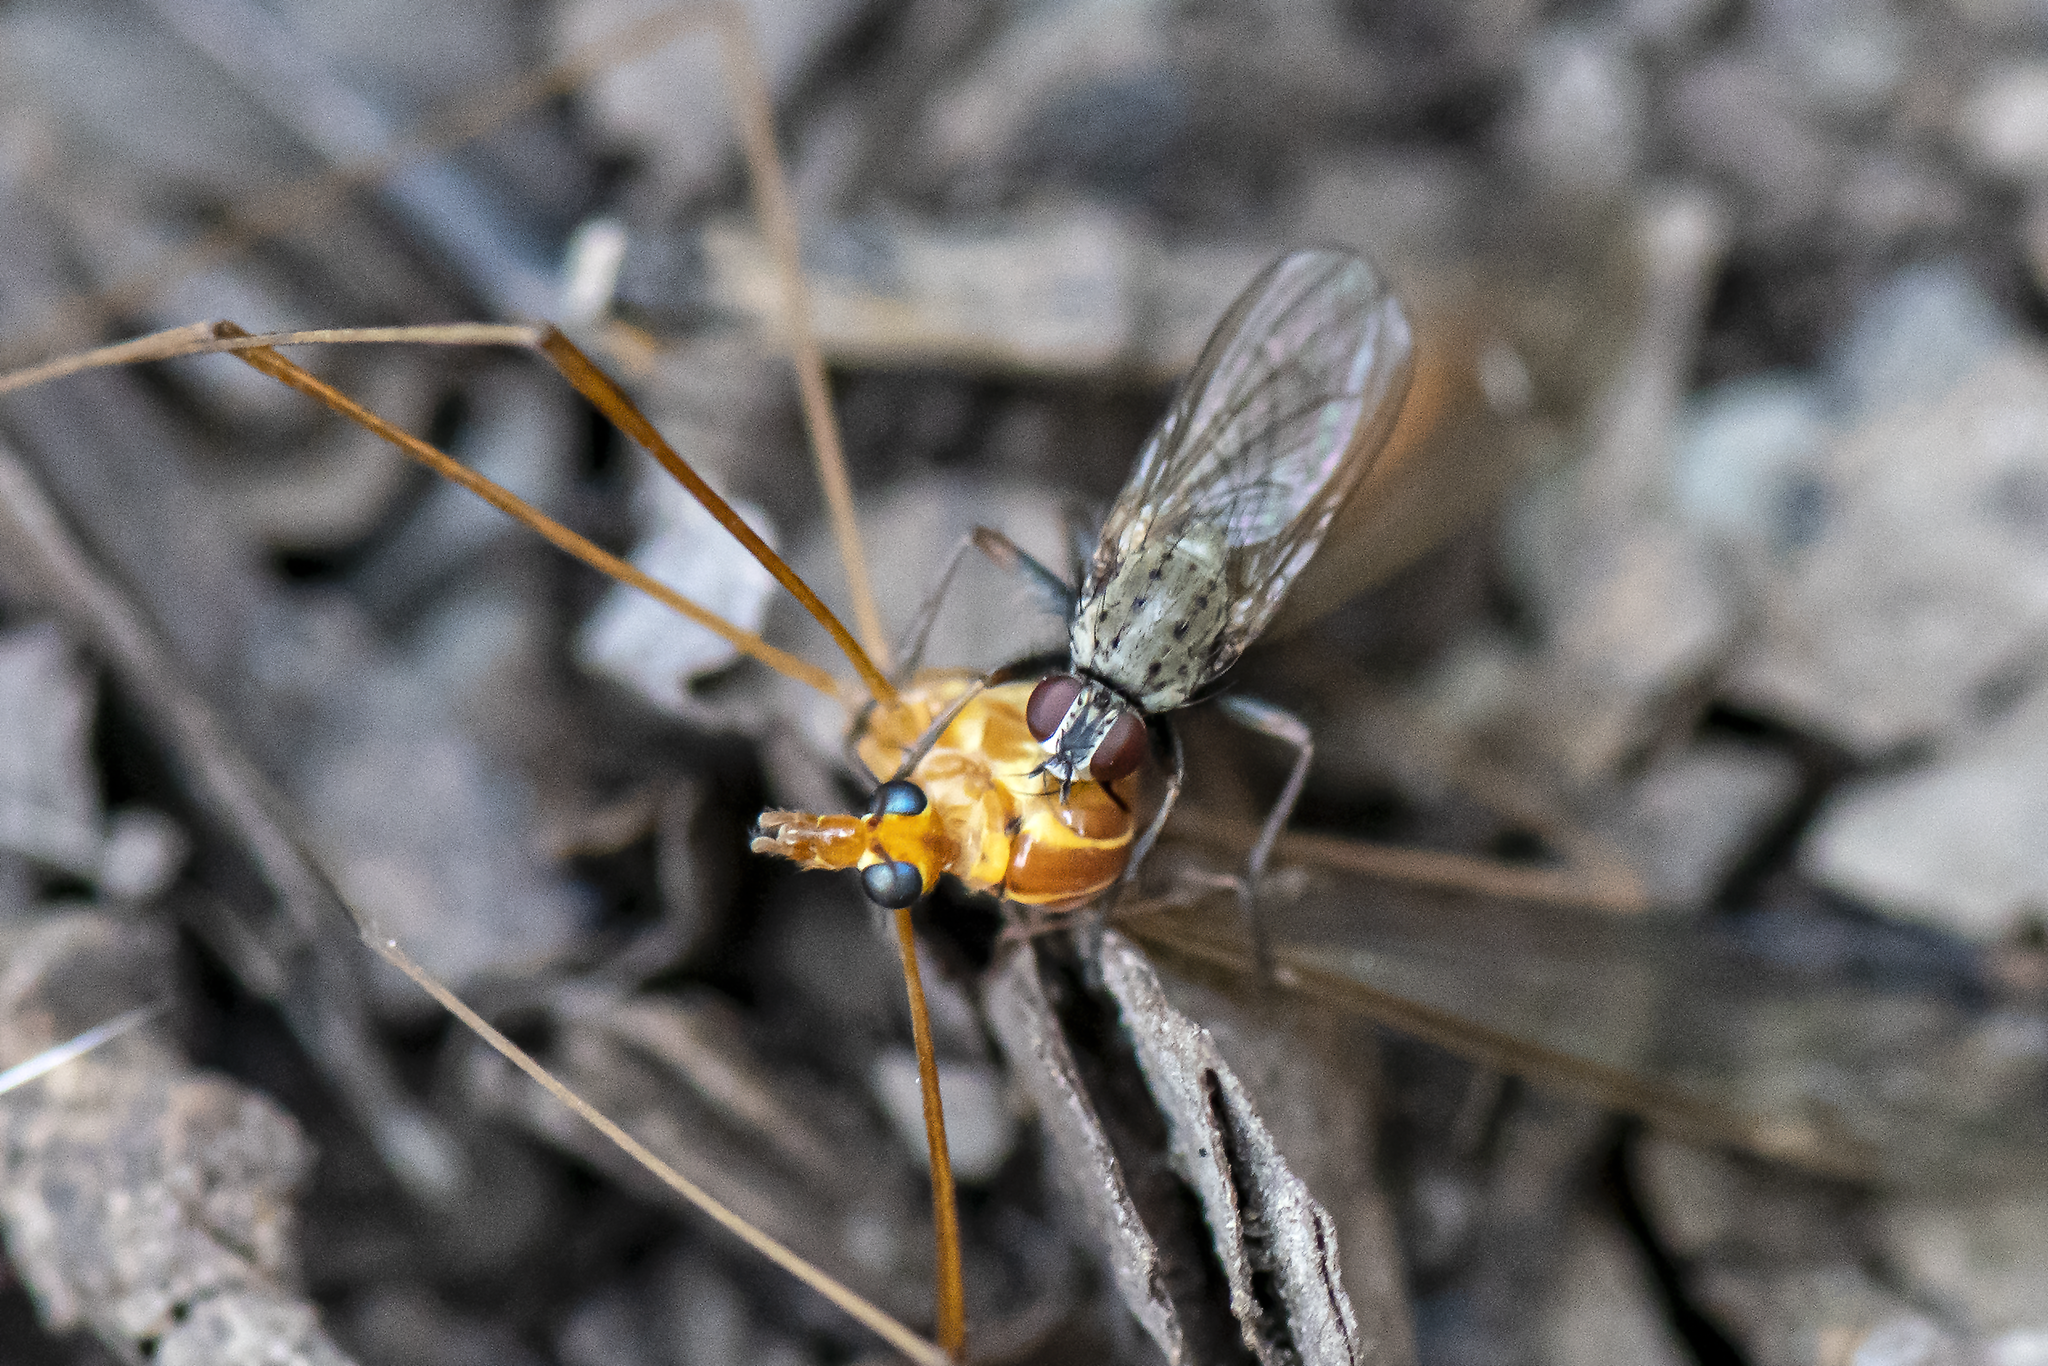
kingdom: Animalia
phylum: Arthropoda
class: Insecta
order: Diptera
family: Muscidae
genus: Coenosia
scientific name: Coenosia tigrina
